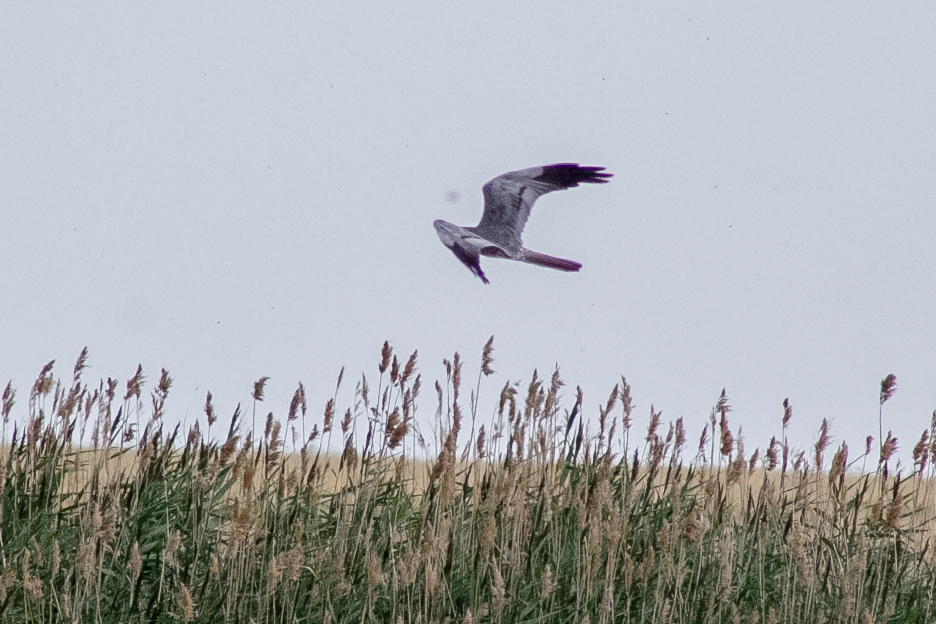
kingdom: Animalia
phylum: Chordata
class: Aves
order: Accipitriformes
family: Accipitridae
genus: Circus
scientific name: Circus pygargus
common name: Montagu's harrier
